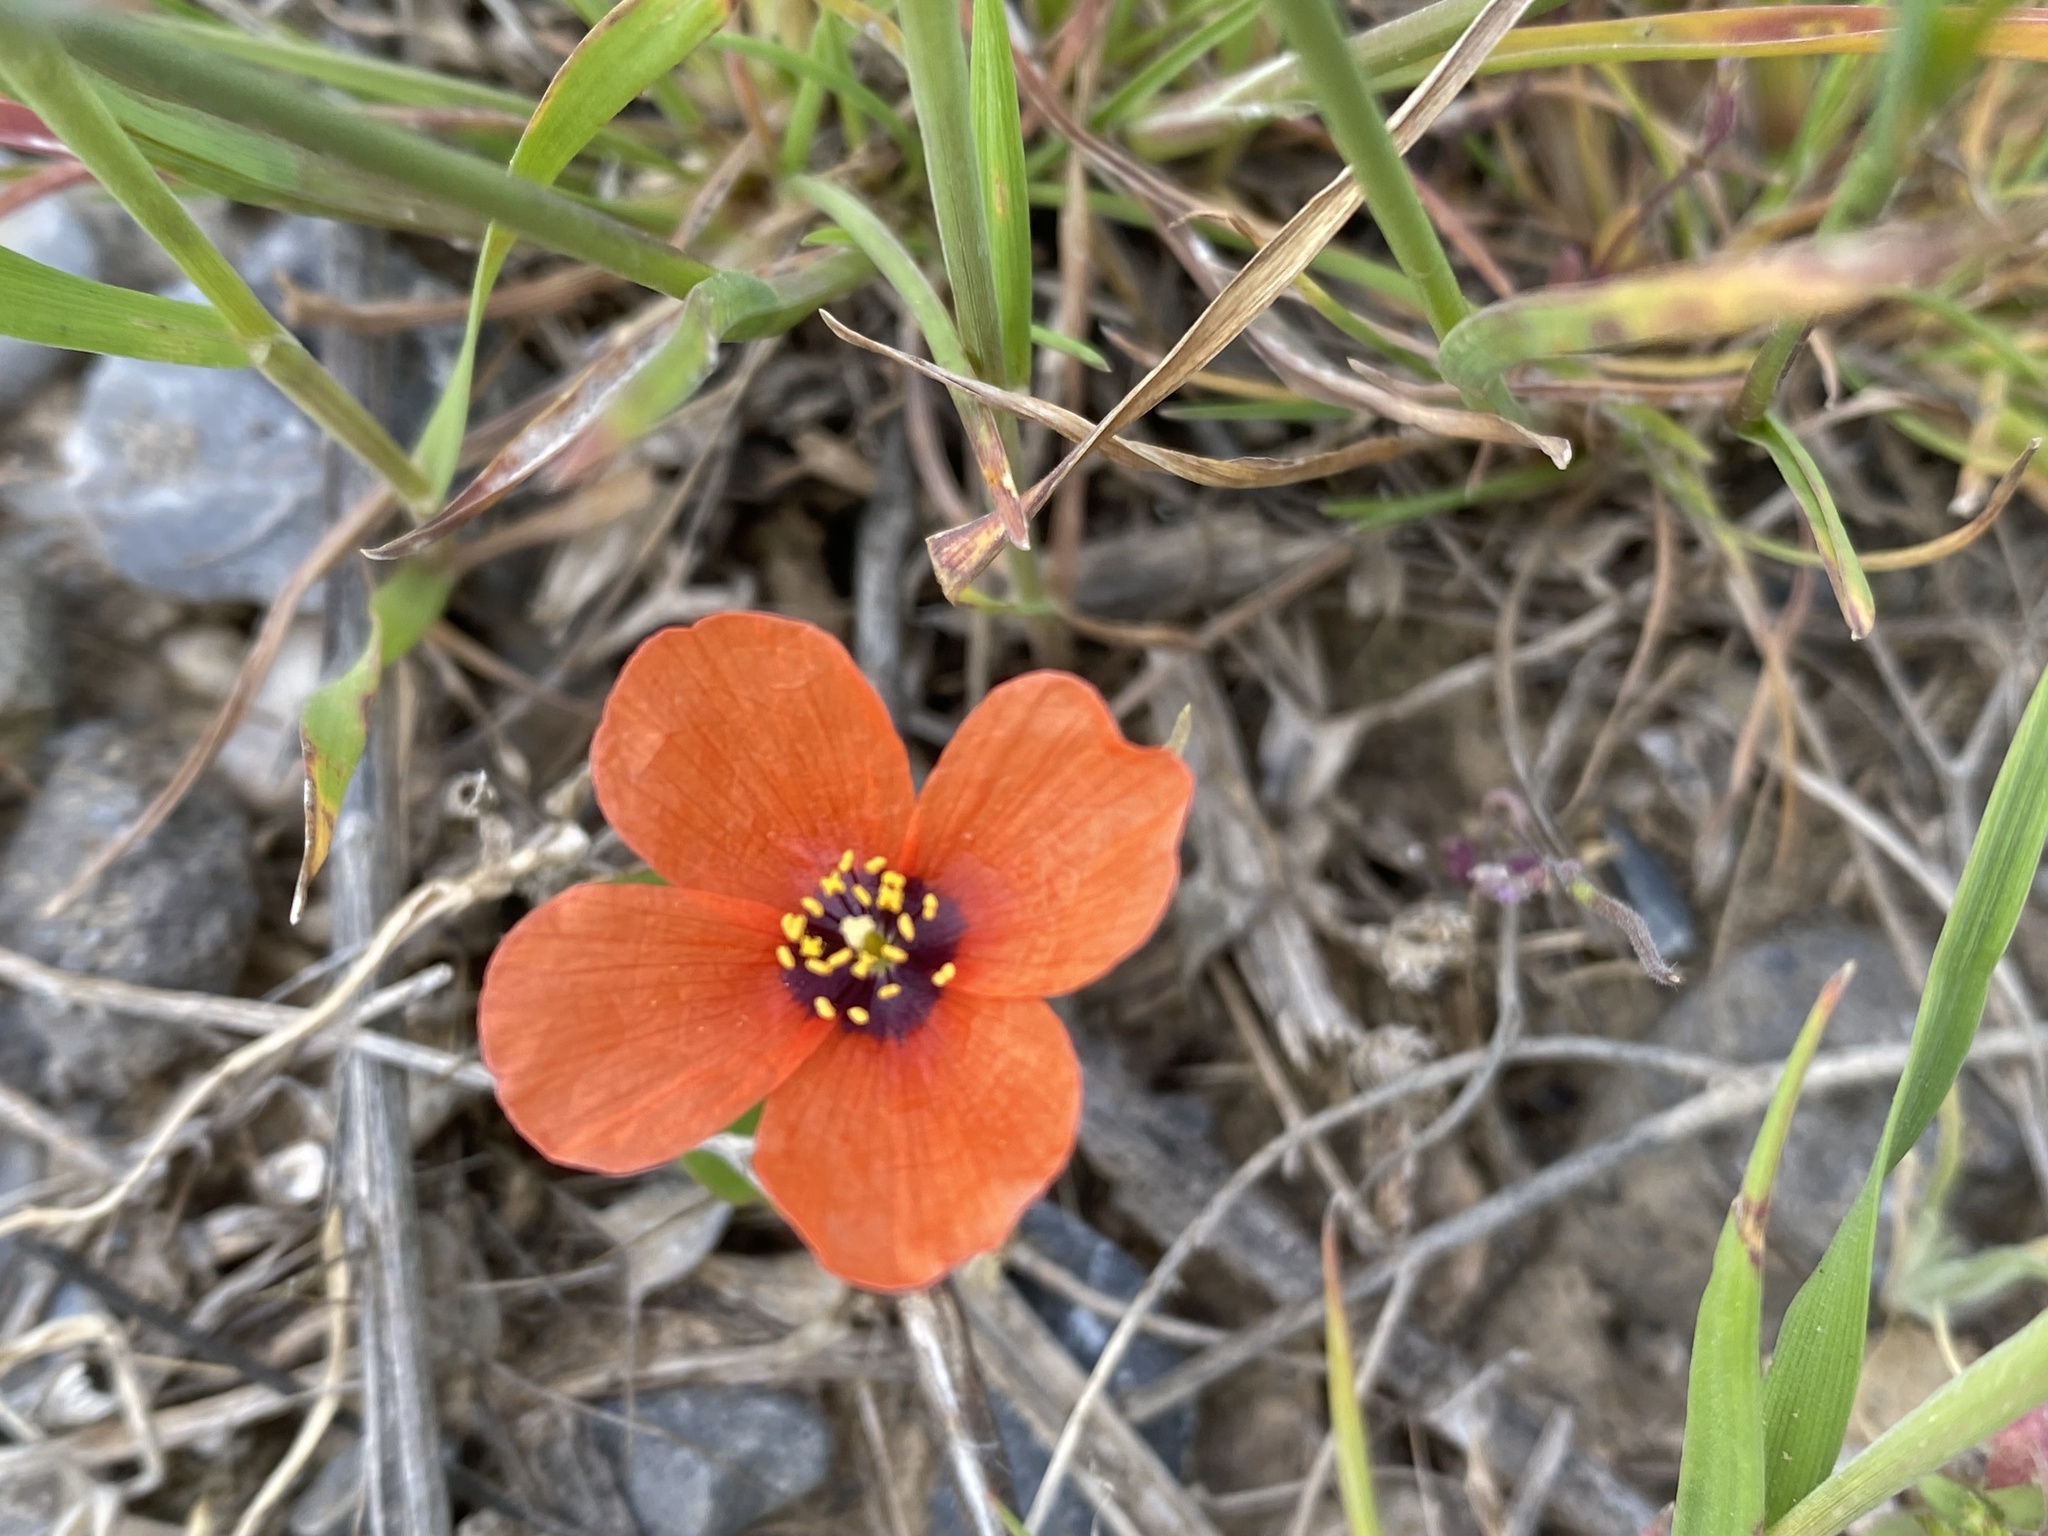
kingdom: Plantae
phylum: Tracheophyta
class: Magnoliopsida
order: Ranunculales
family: Papaveraceae
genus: Roemeria
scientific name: Roemeria refracta
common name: Spotted asian poppy
